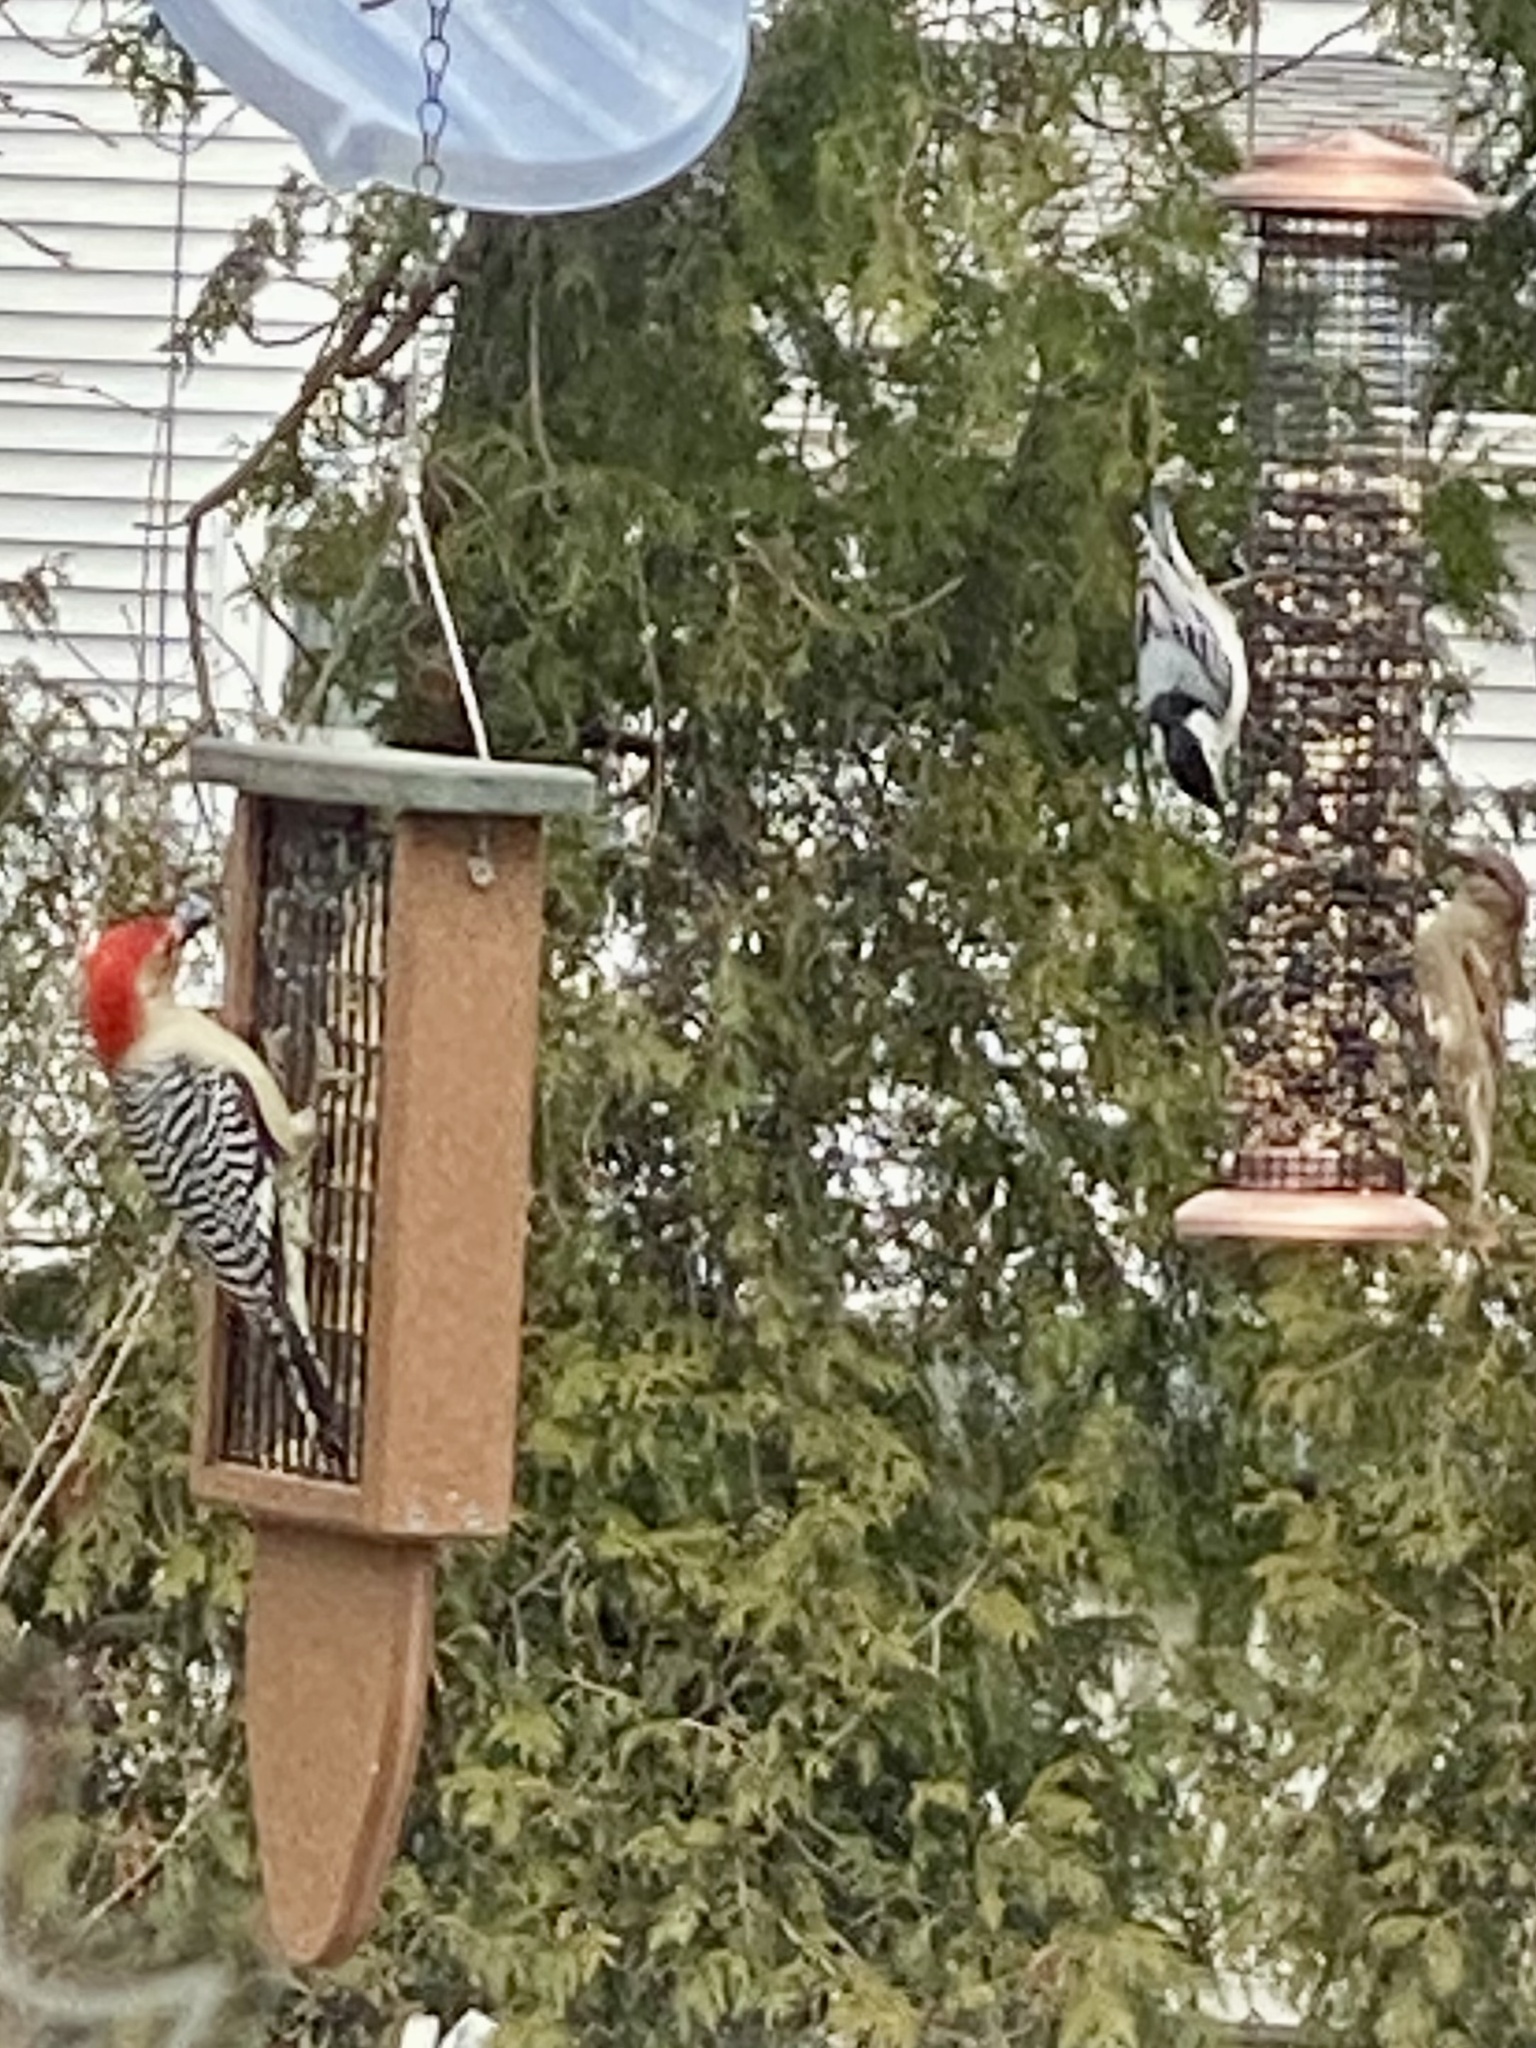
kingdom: Animalia
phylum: Chordata
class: Aves
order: Passeriformes
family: Sittidae
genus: Sitta
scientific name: Sitta carolinensis
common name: White-breasted nuthatch
